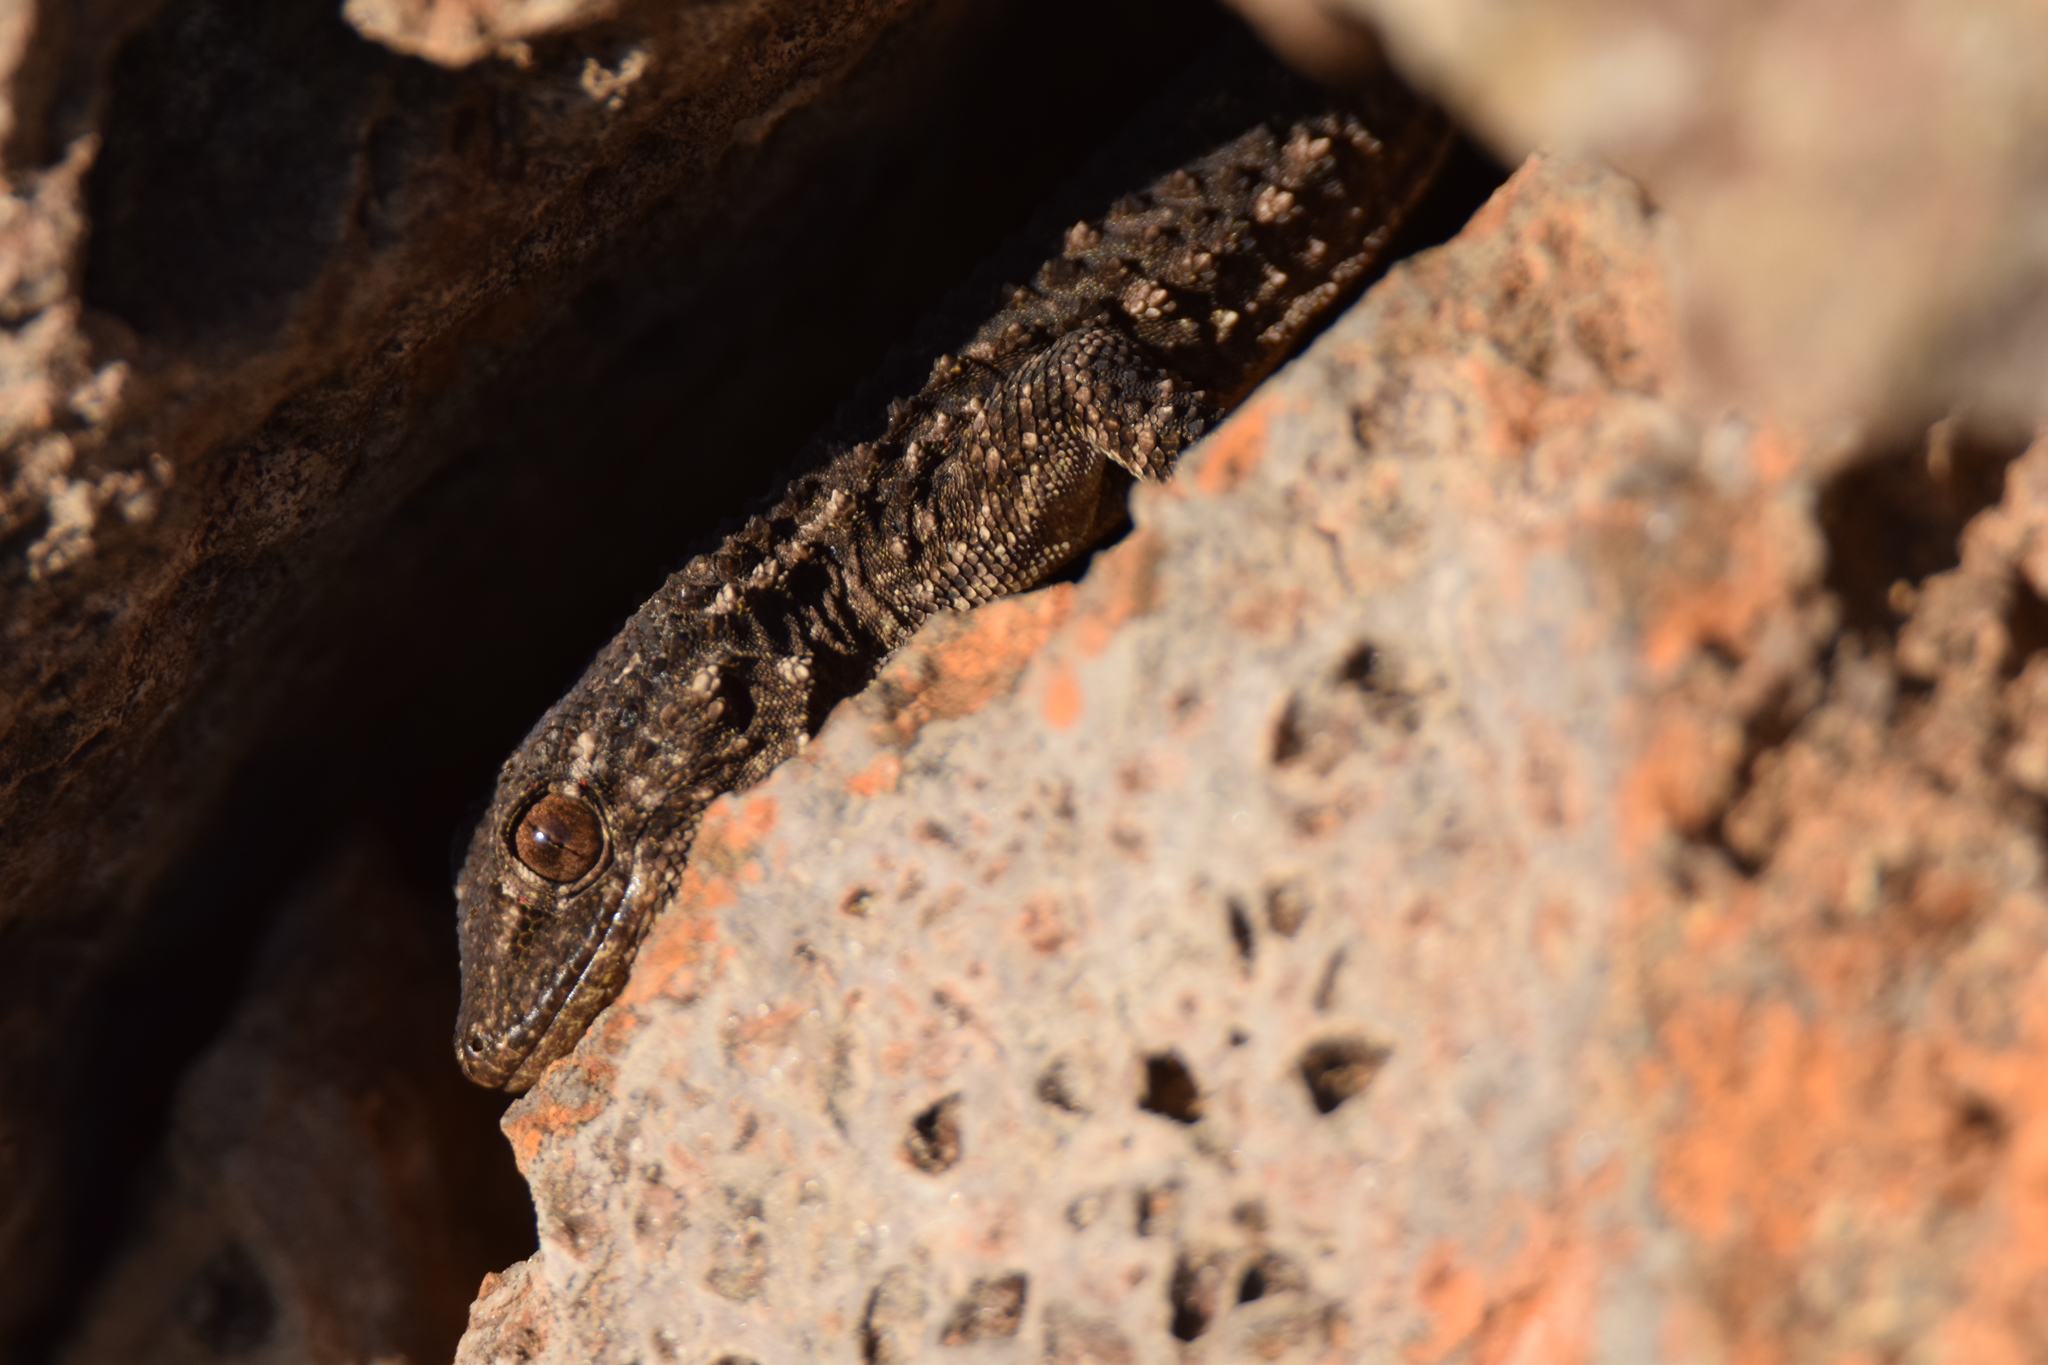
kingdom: Animalia
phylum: Chordata
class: Squamata
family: Phyllodactylidae
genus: Tarentola
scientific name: Tarentola mauritanica
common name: Moorish gecko
